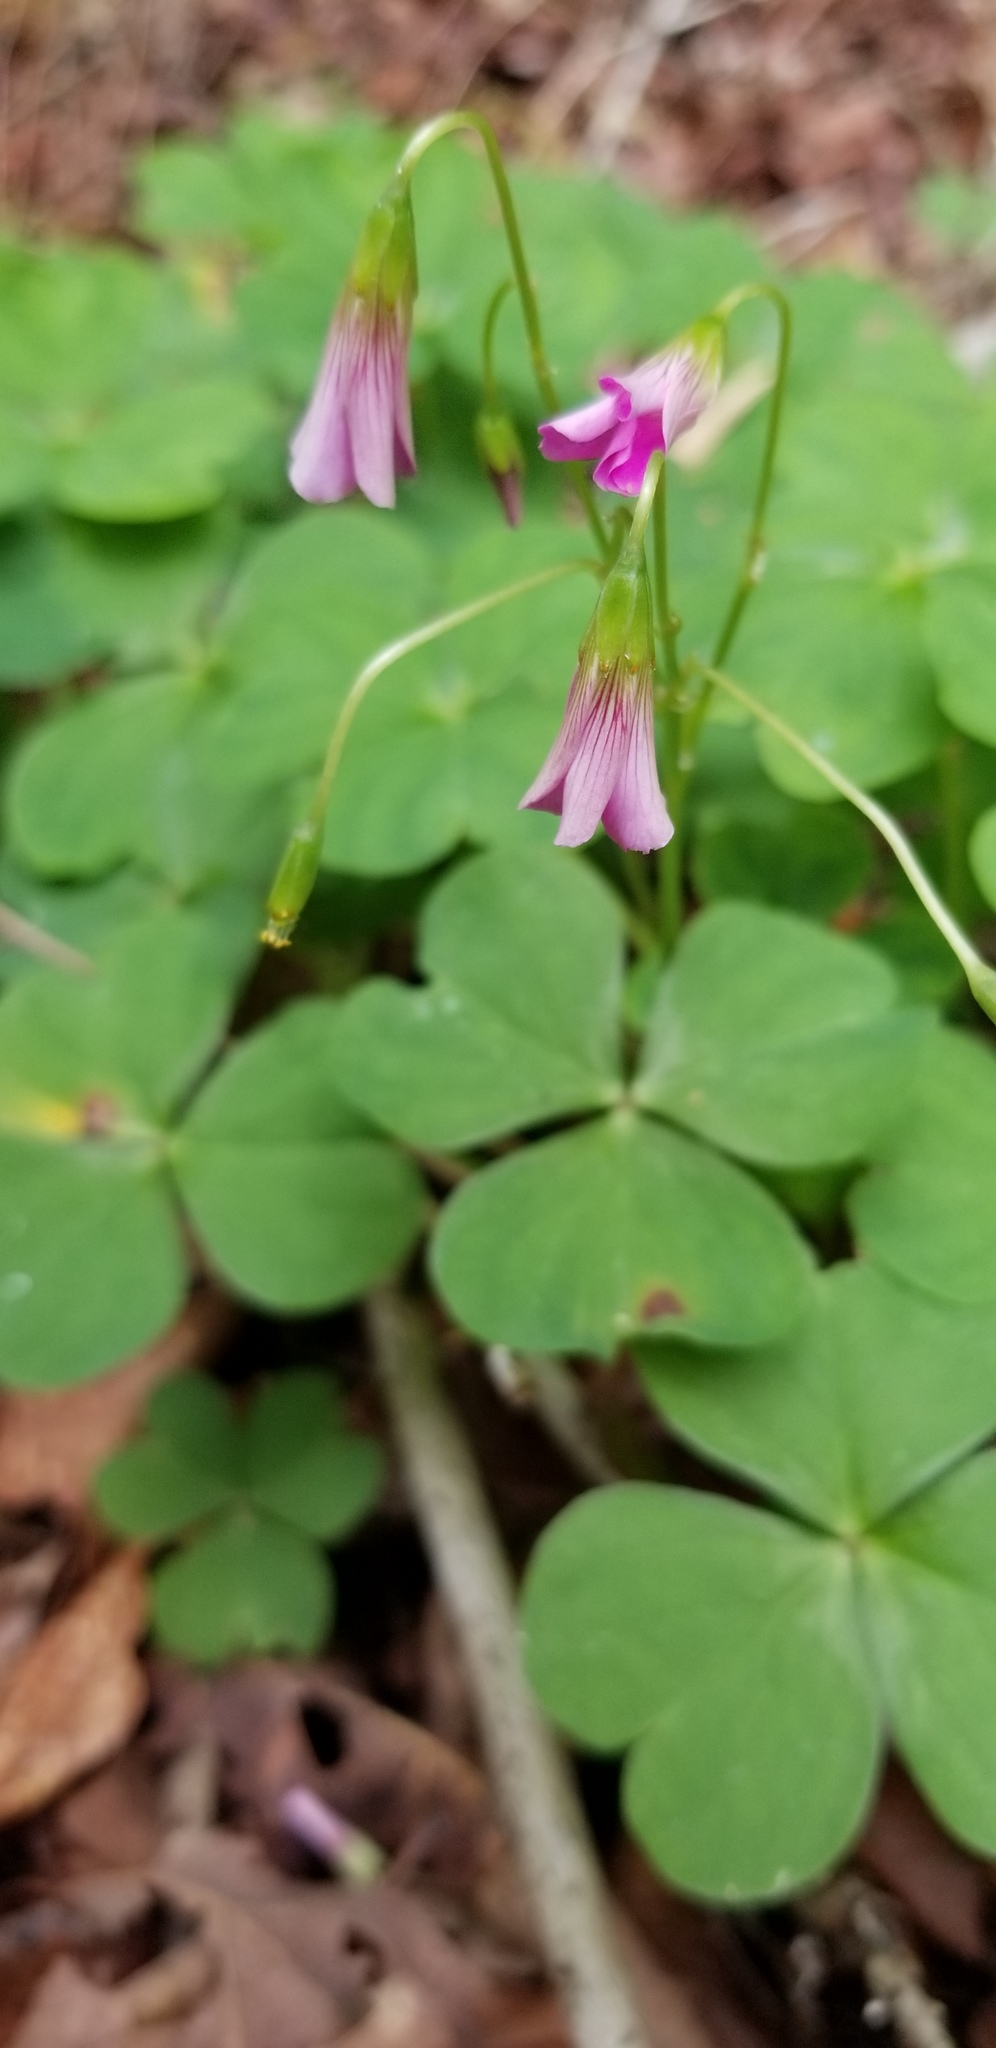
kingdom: Plantae
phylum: Tracheophyta
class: Magnoliopsida
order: Oxalidales
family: Oxalidaceae
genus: Oxalis
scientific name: Oxalis debilis
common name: Large-flowered pink-sorrel
